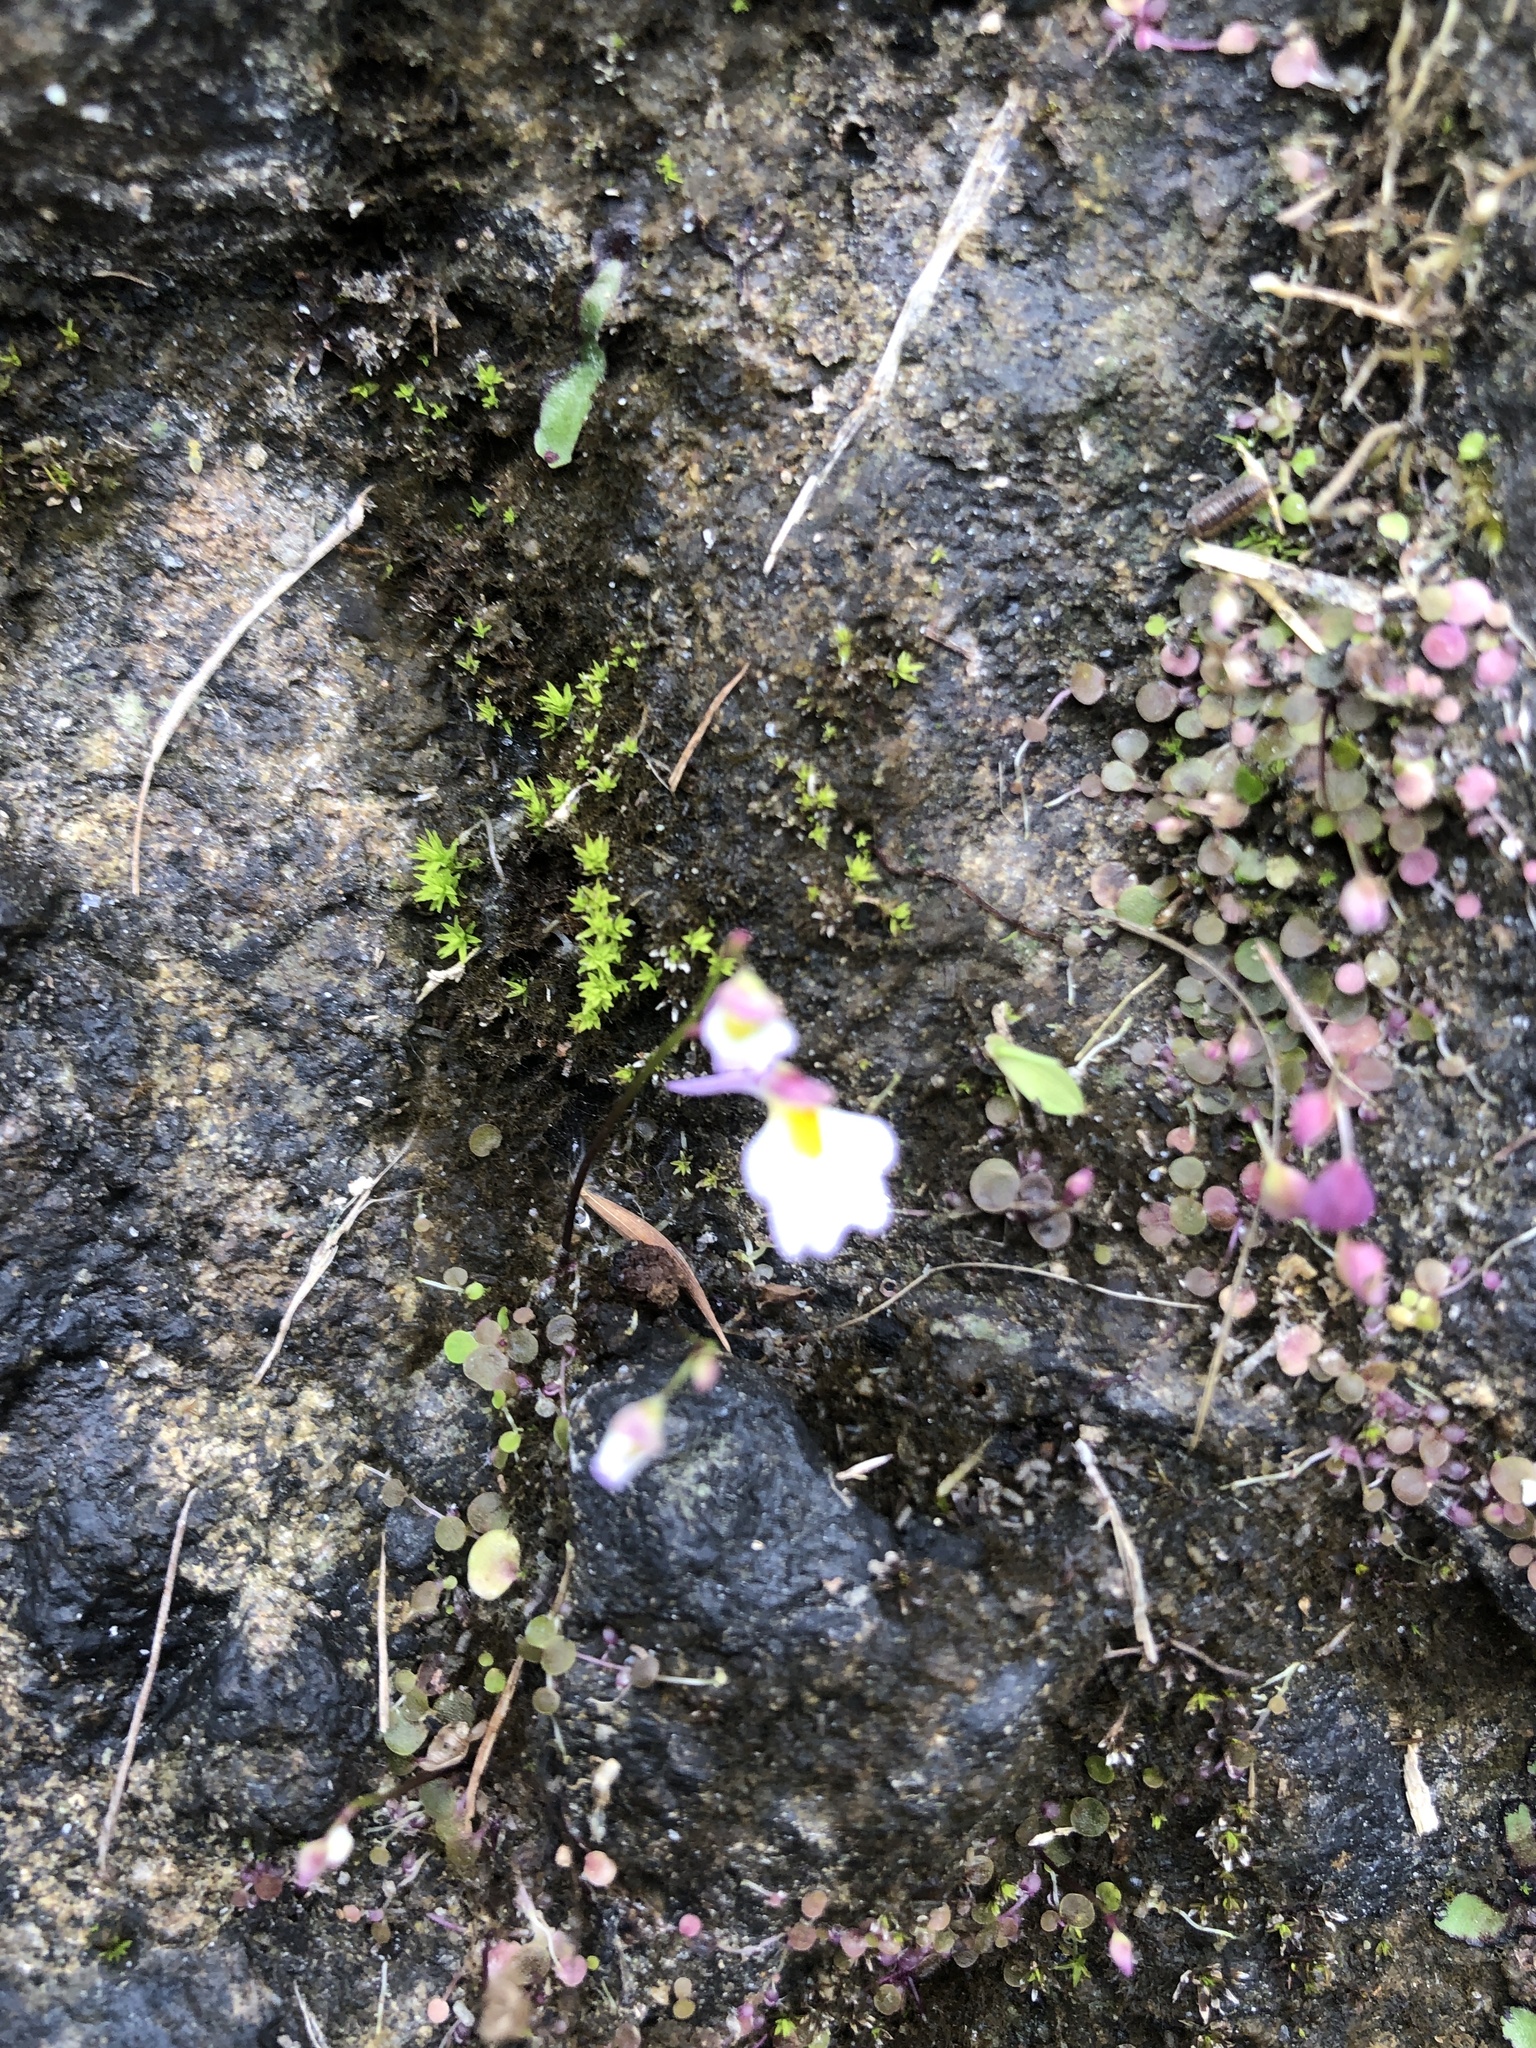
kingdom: Plantae
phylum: Tracheophyta
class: Magnoliopsida
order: Lamiales
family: Lentibulariaceae
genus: Utricularia
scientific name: Utricularia striatula
